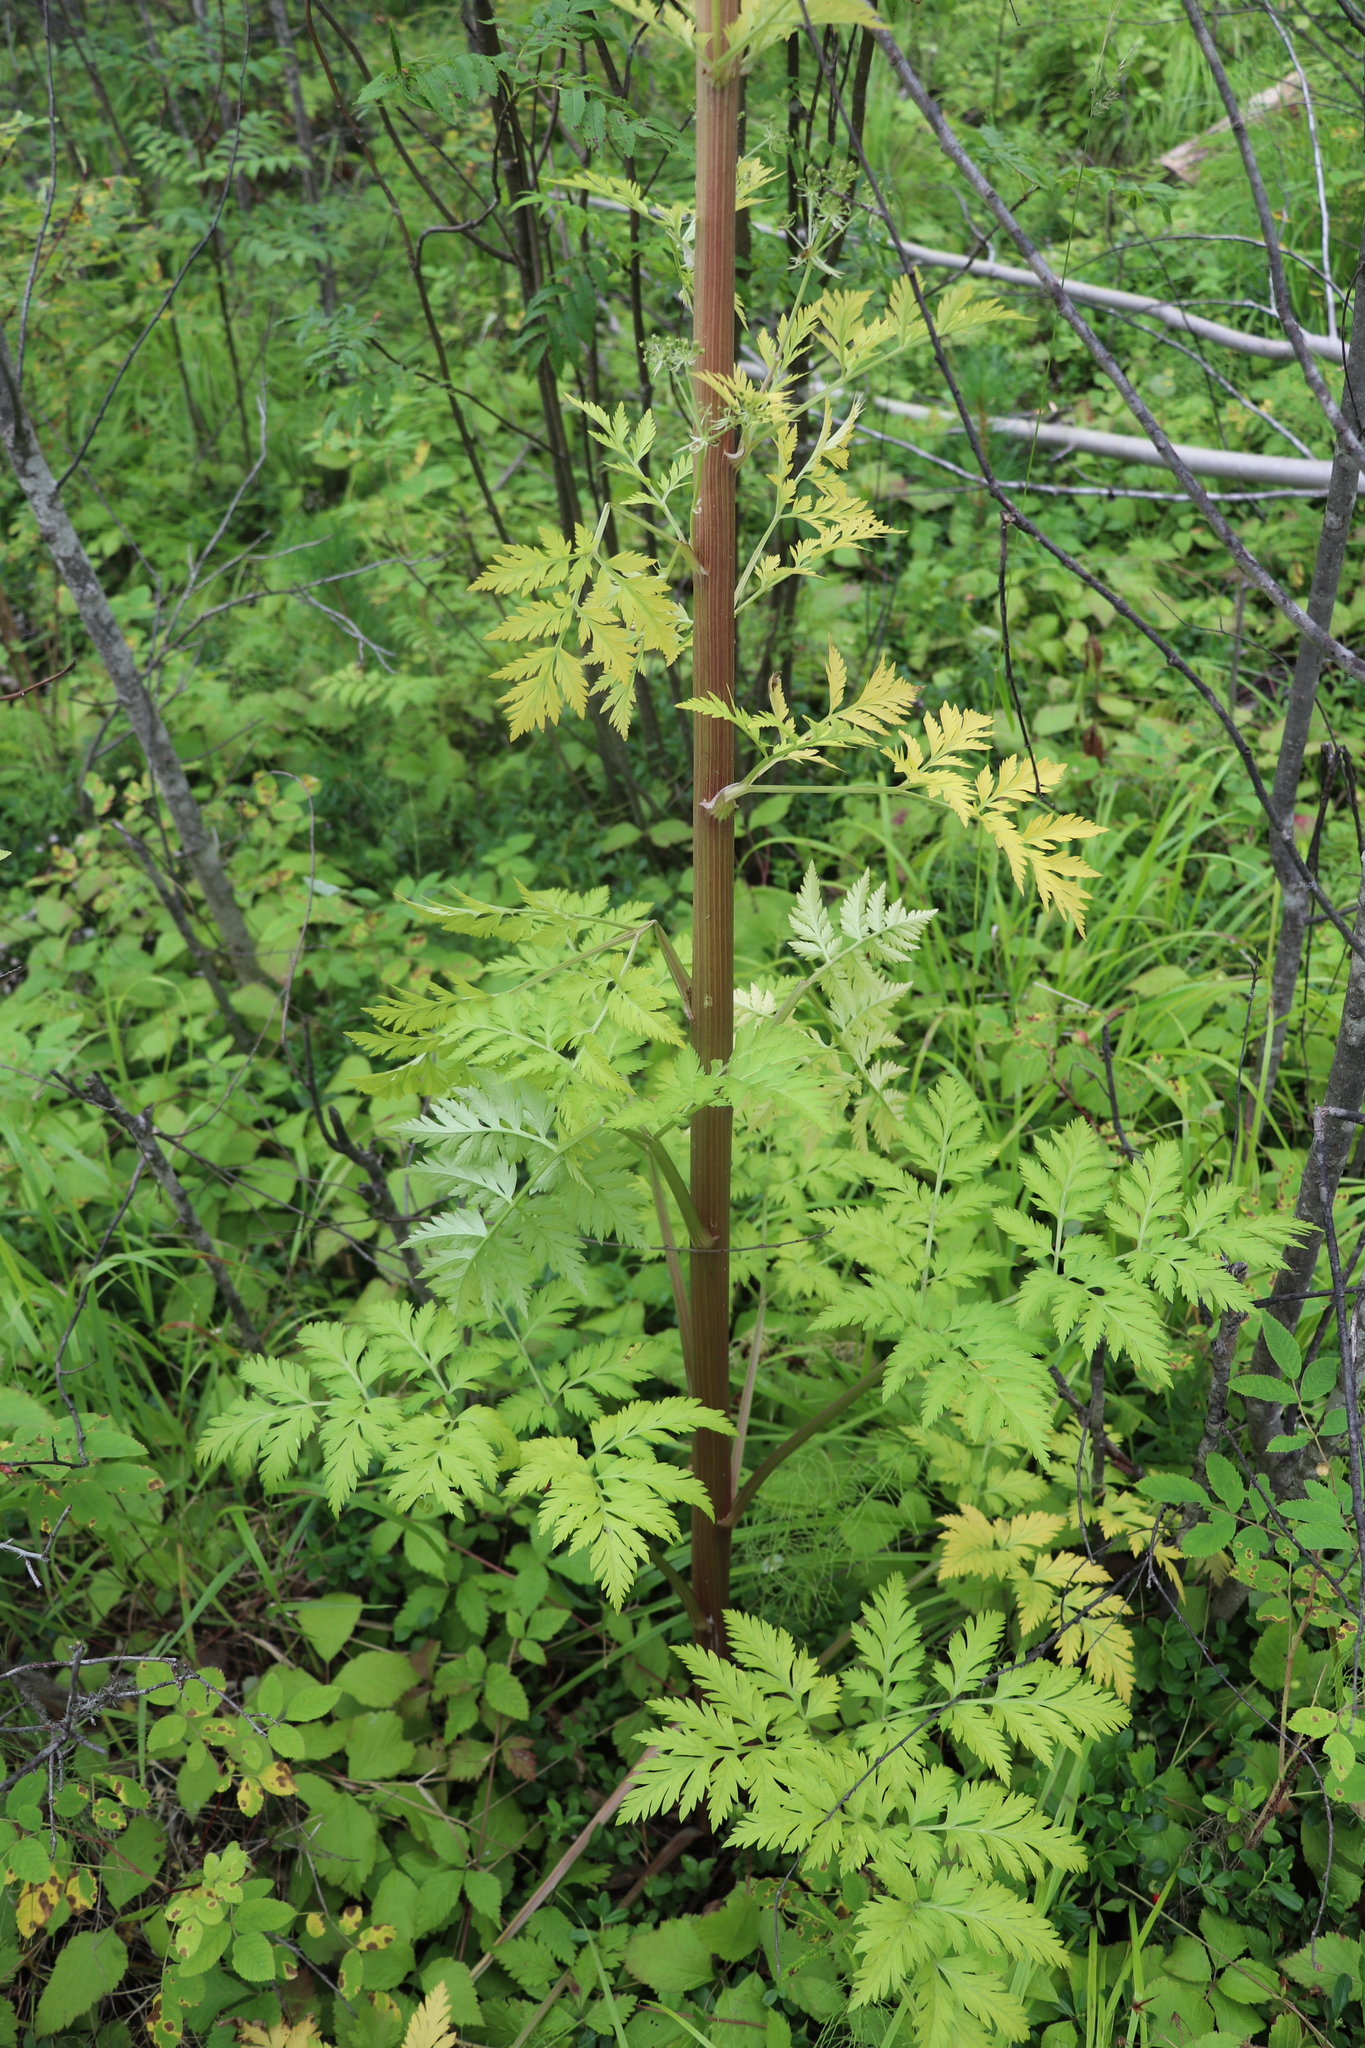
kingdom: Plantae
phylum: Tracheophyta
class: Magnoliopsida
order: Apiales
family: Apiaceae
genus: Pleurospermum
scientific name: Pleurospermum uralense
